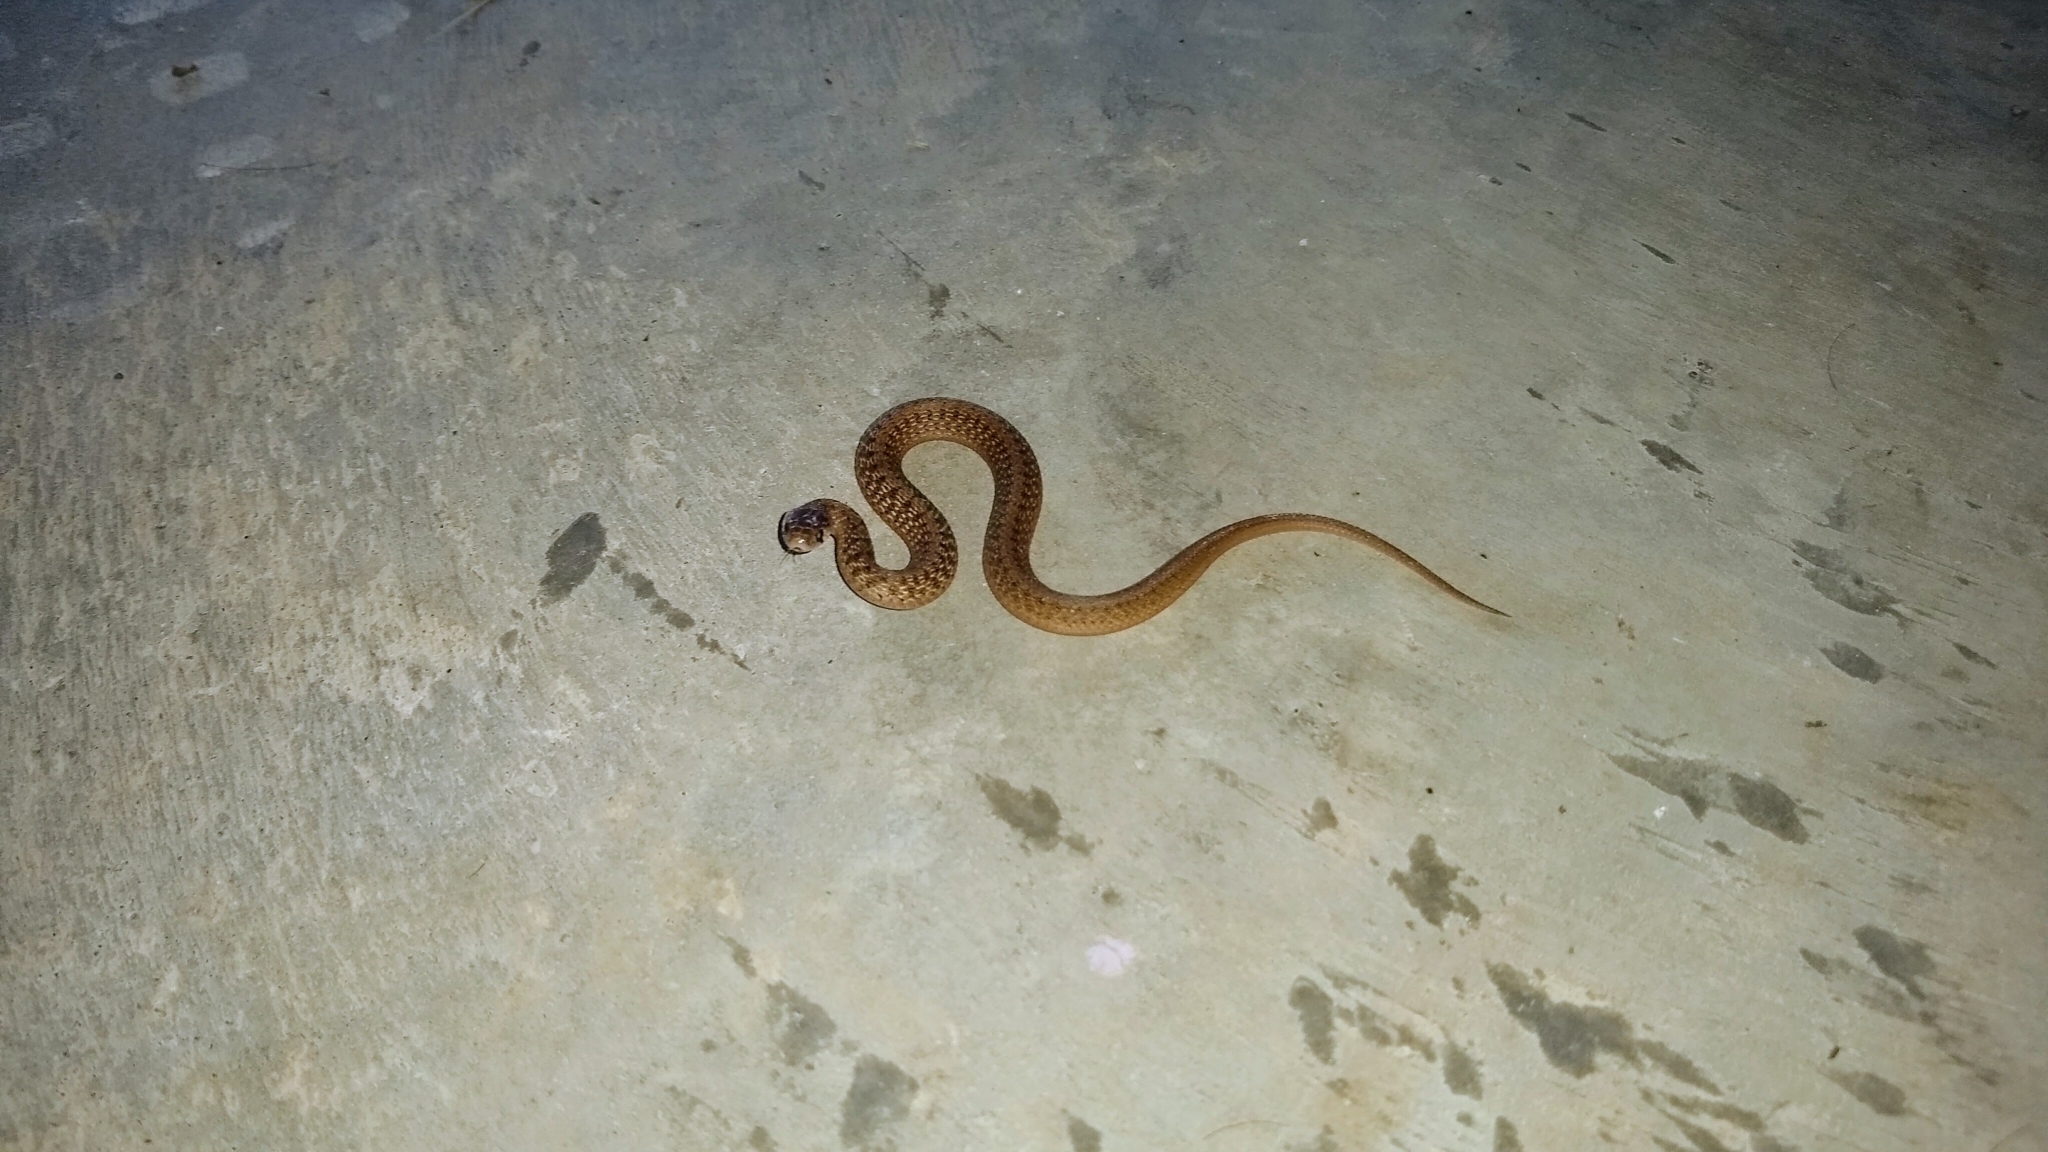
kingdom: Animalia
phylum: Chordata
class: Squamata
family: Colubridae
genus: Storeria
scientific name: Storeria dekayi
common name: (dekay’s) brown snake
